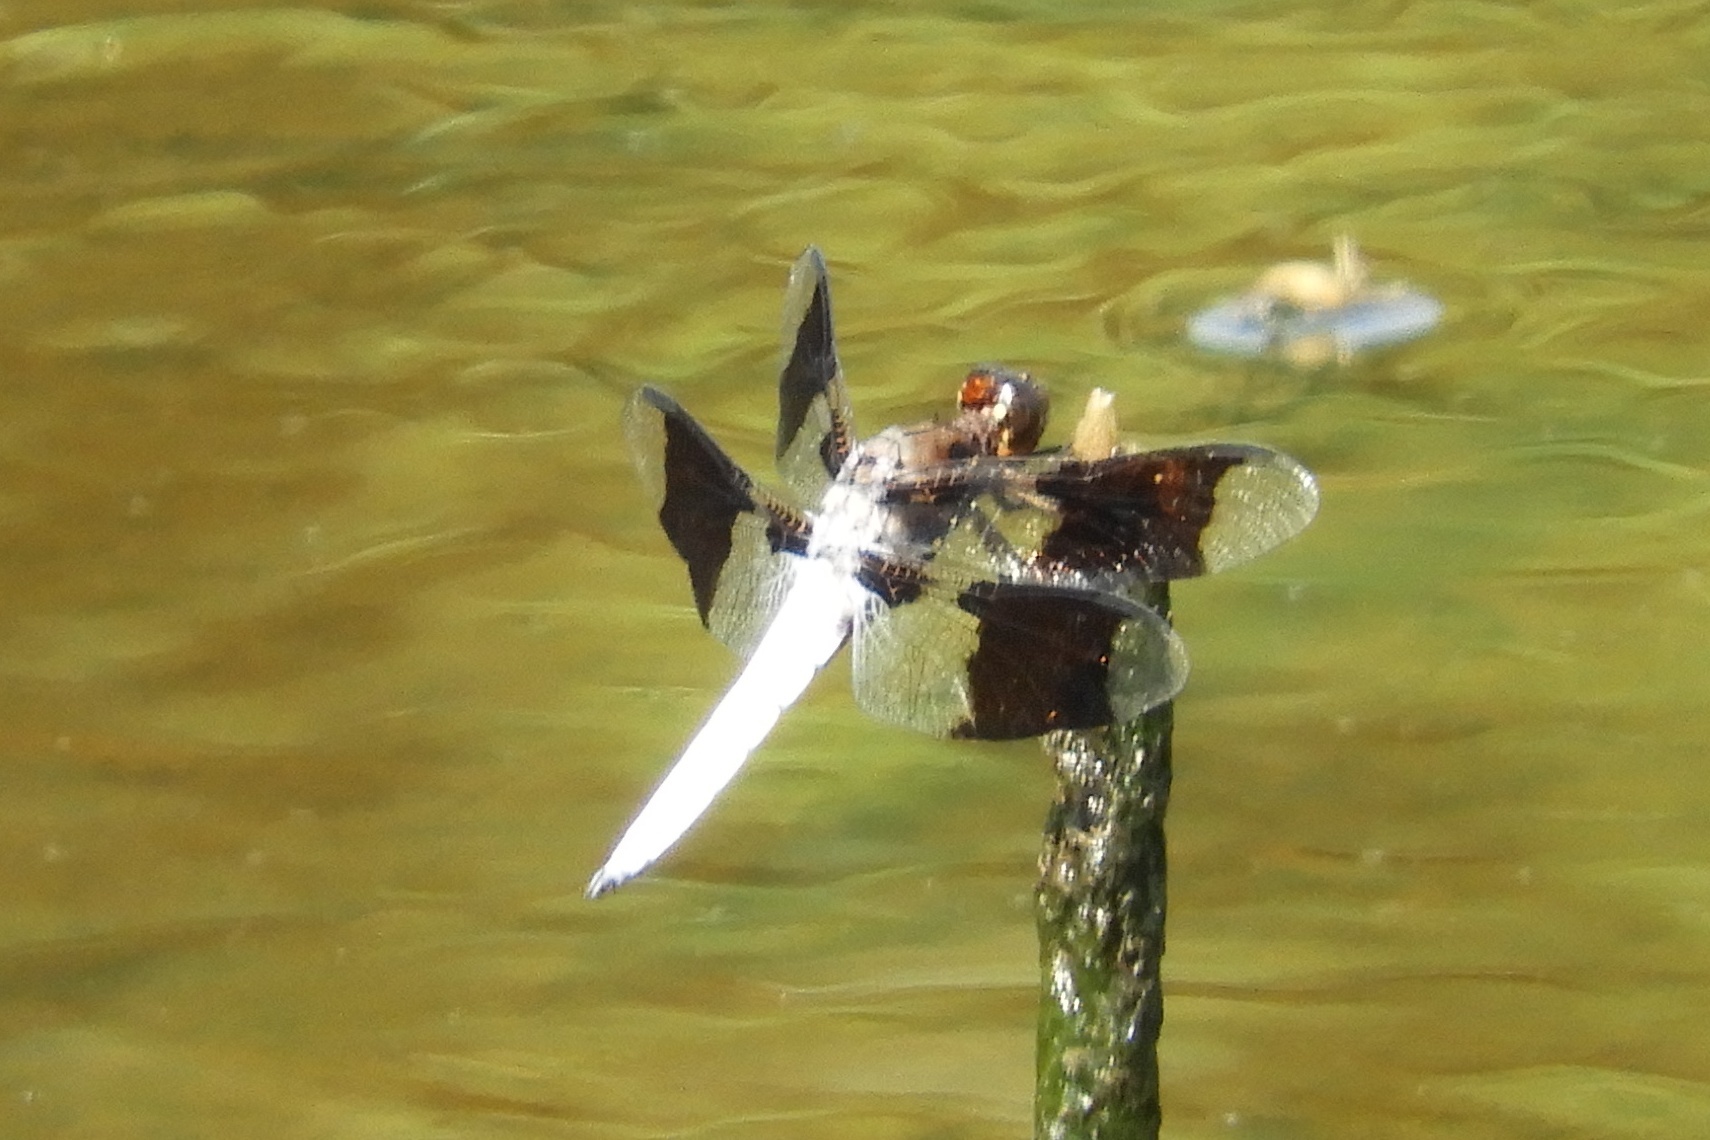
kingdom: Animalia
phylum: Arthropoda
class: Insecta
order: Odonata
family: Libellulidae
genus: Plathemis
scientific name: Plathemis lydia
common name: Common whitetail
